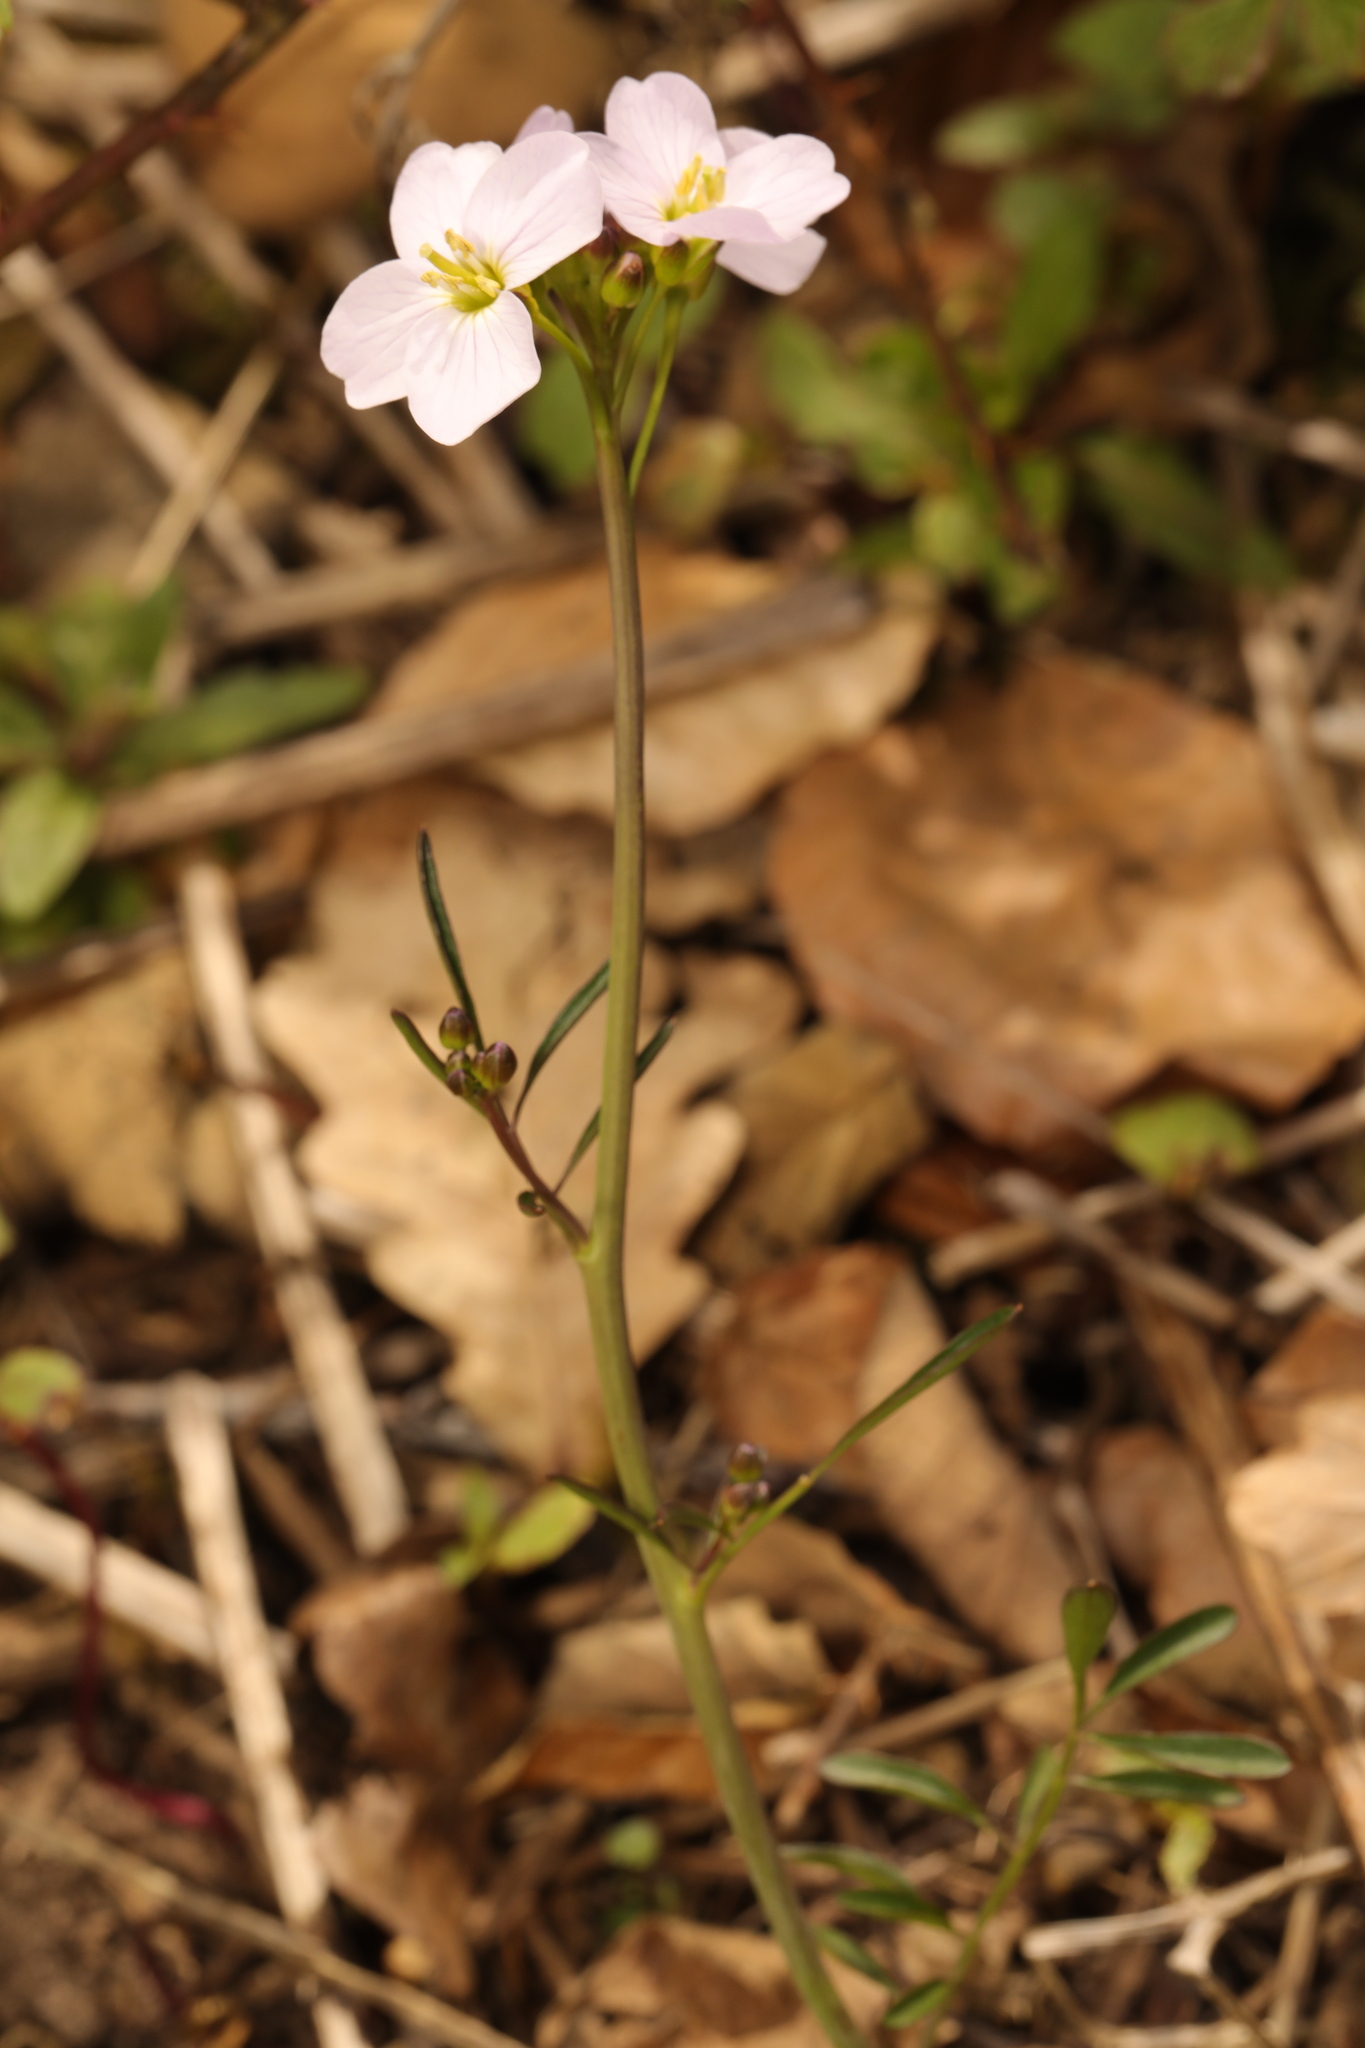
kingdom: Plantae
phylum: Tracheophyta
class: Magnoliopsida
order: Brassicales
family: Brassicaceae
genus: Cardamine
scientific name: Cardamine pratensis
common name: Cuckoo flower
